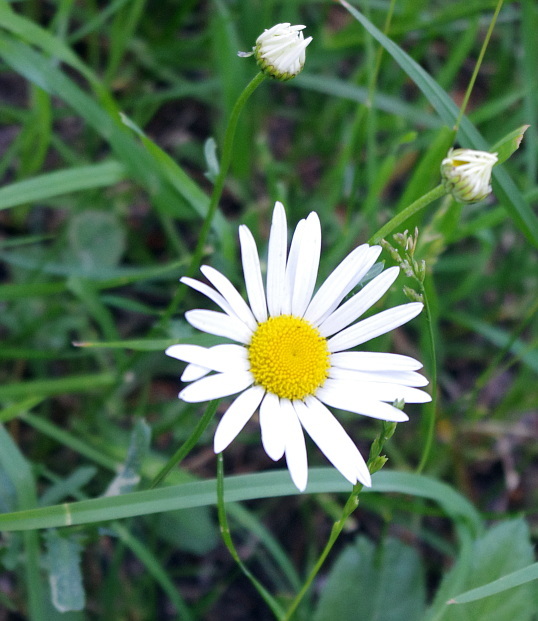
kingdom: Plantae
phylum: Tracheophyta
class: Magnoliopsida
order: Asterales
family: Asteraceae
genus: Leucanthemum
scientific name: Leucanthemum vulgare
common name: Oxeye daisy
